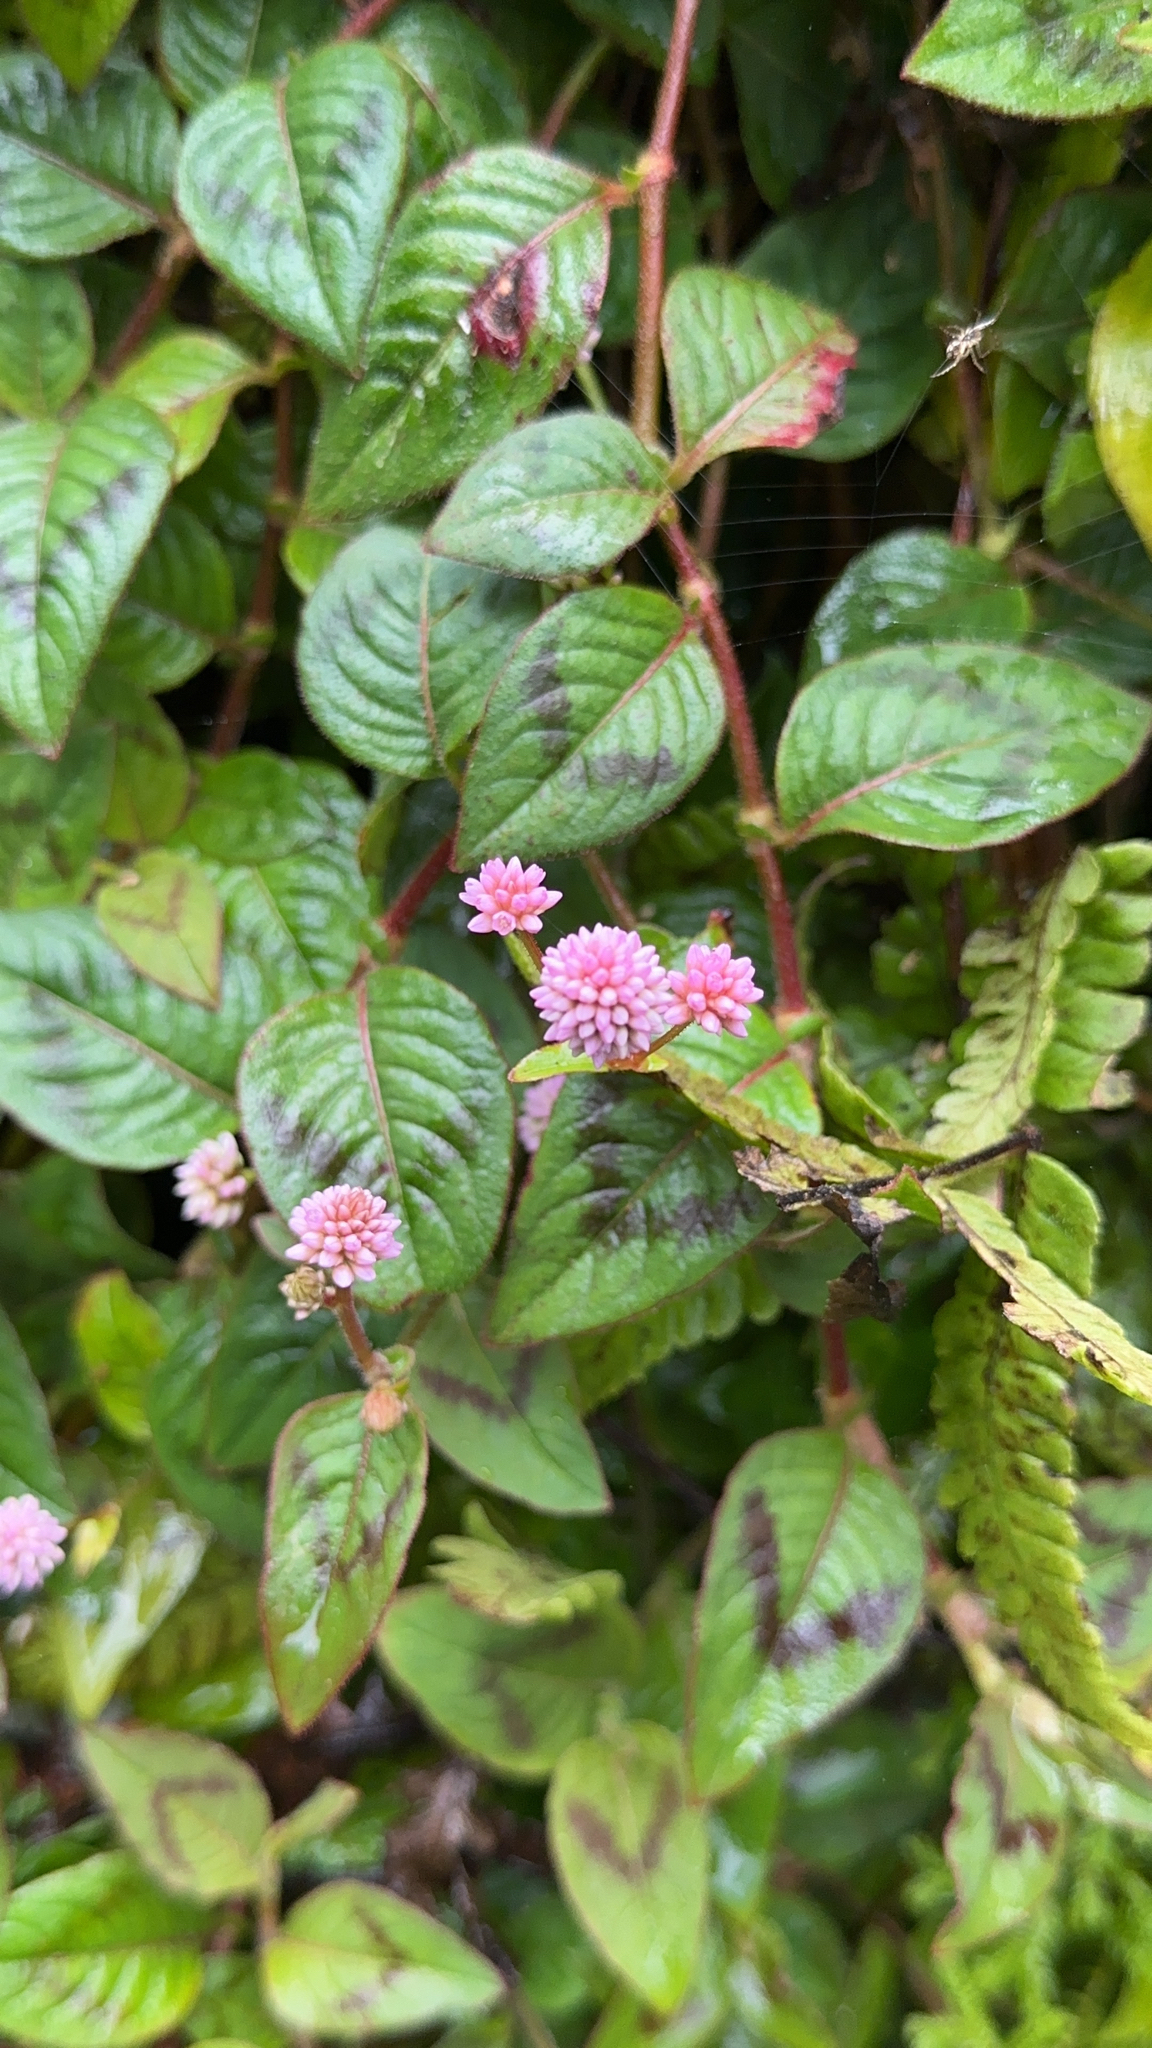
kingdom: Plantae
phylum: Tracheophyta
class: Magnoliopsida
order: Caryophyllales
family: Polygonaceae
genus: Persicaria
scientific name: Persicaria capitata
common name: Pinkhead smartweed
